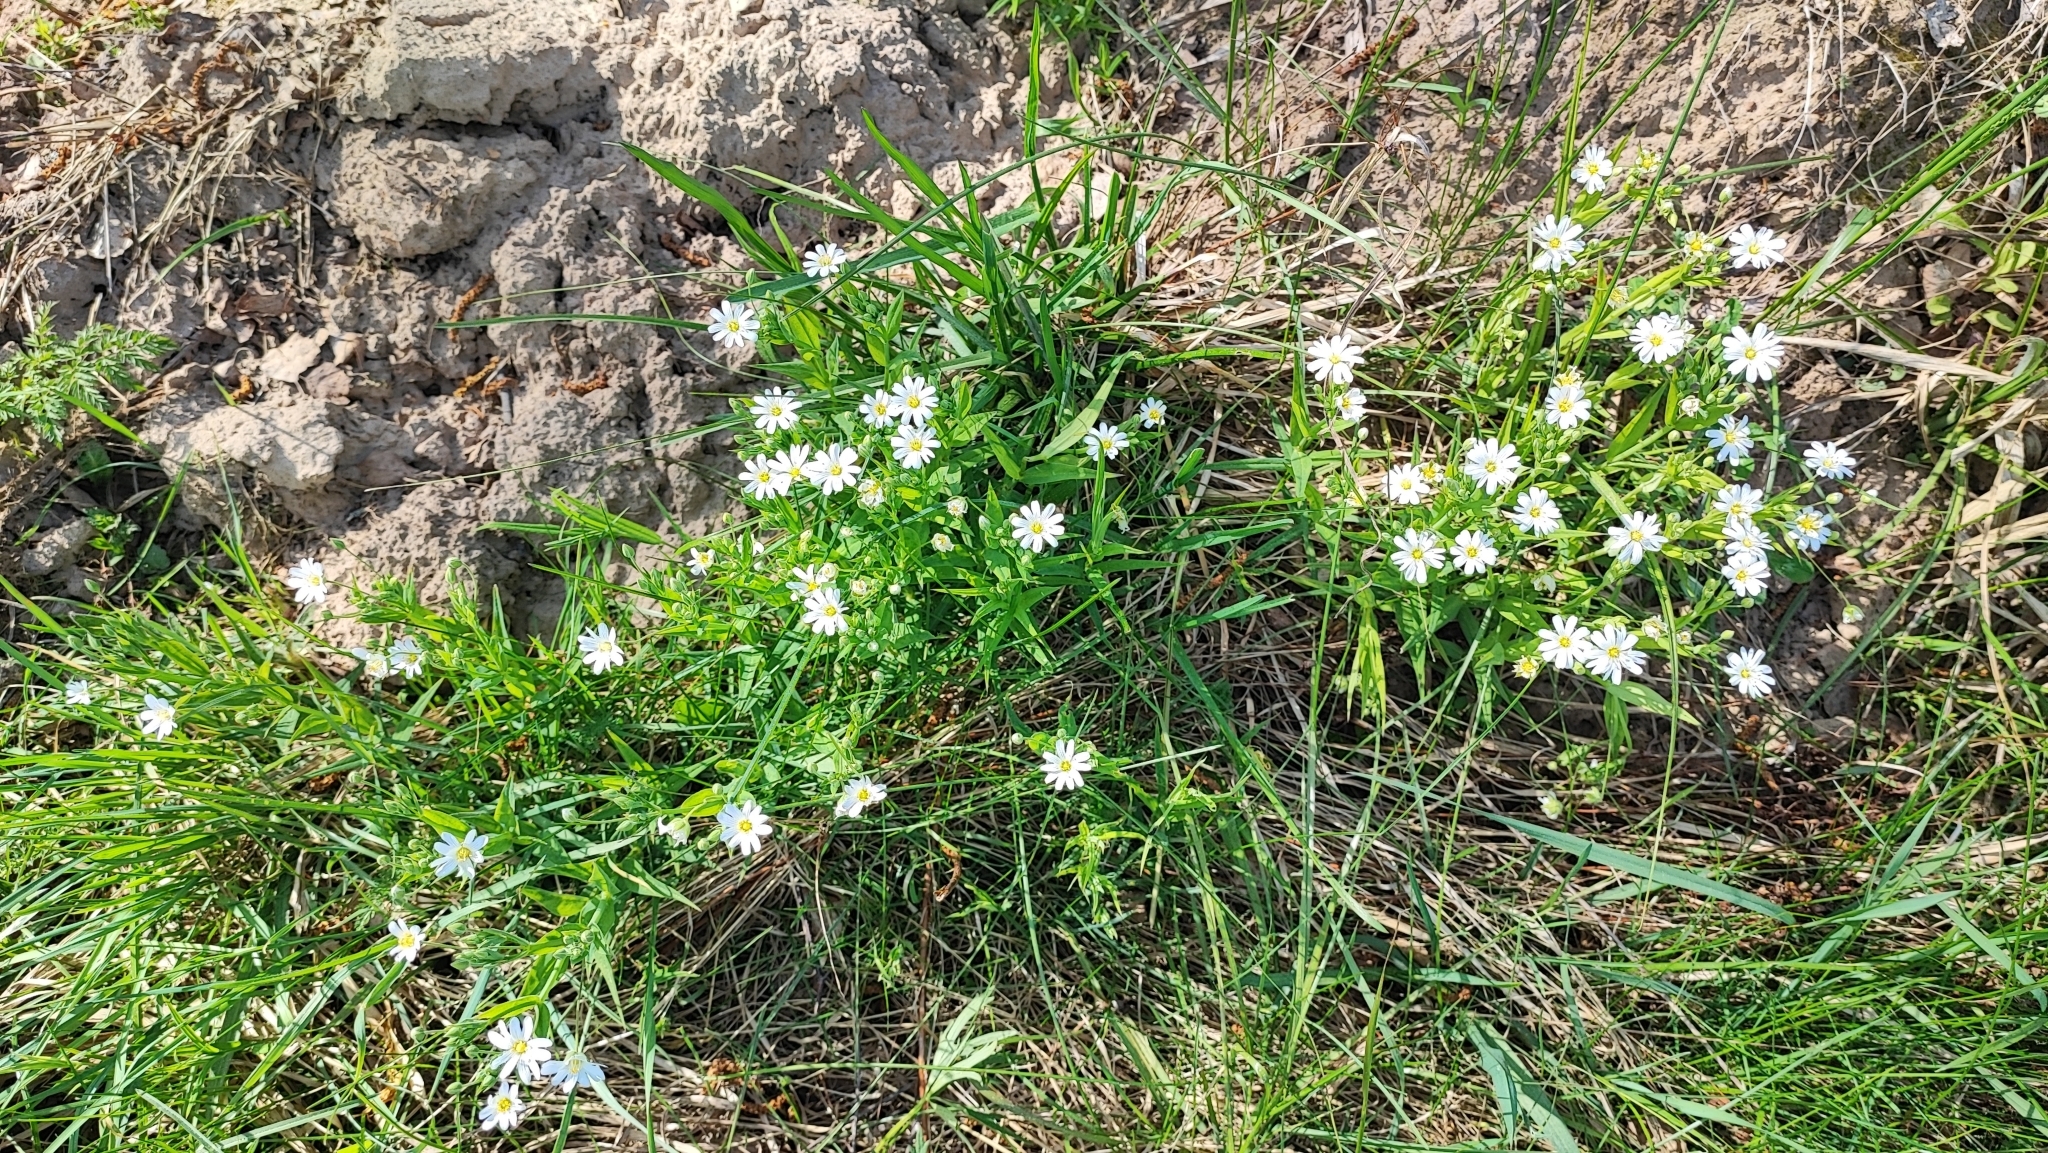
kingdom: Plantae
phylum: Tracheophyta
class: Magnoliopsida
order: Caryophyllales
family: Caryophyllaceae
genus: Rabelera
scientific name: Rabelera holostea
